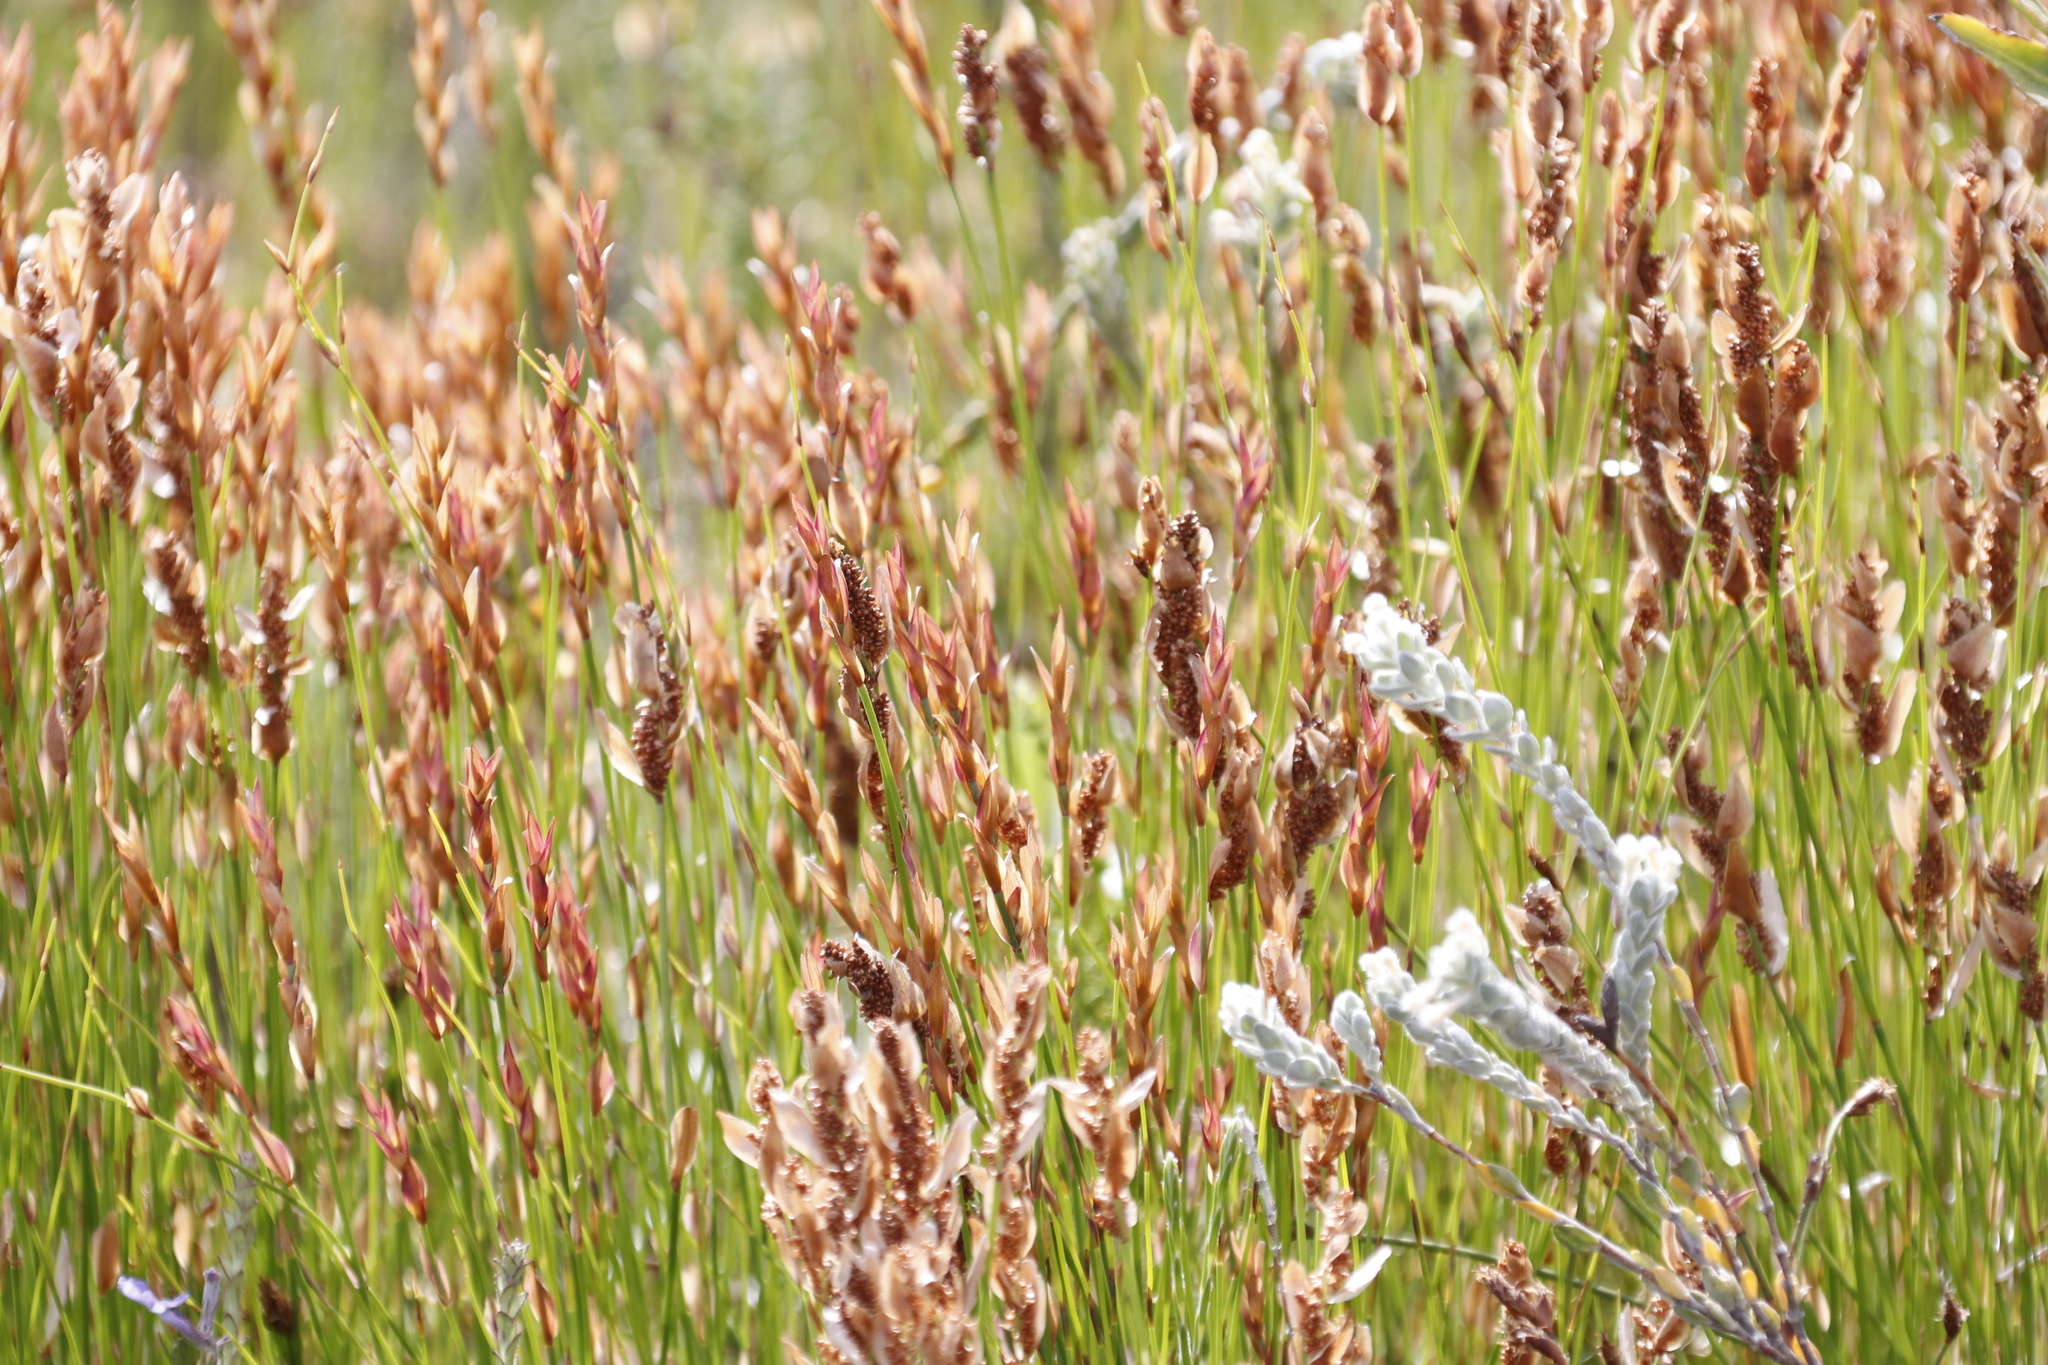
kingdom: Plantae
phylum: Tracheophyta
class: Liliopsida
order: Poales
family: Restionaceae
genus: Elegia
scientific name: Elegia stipularis
